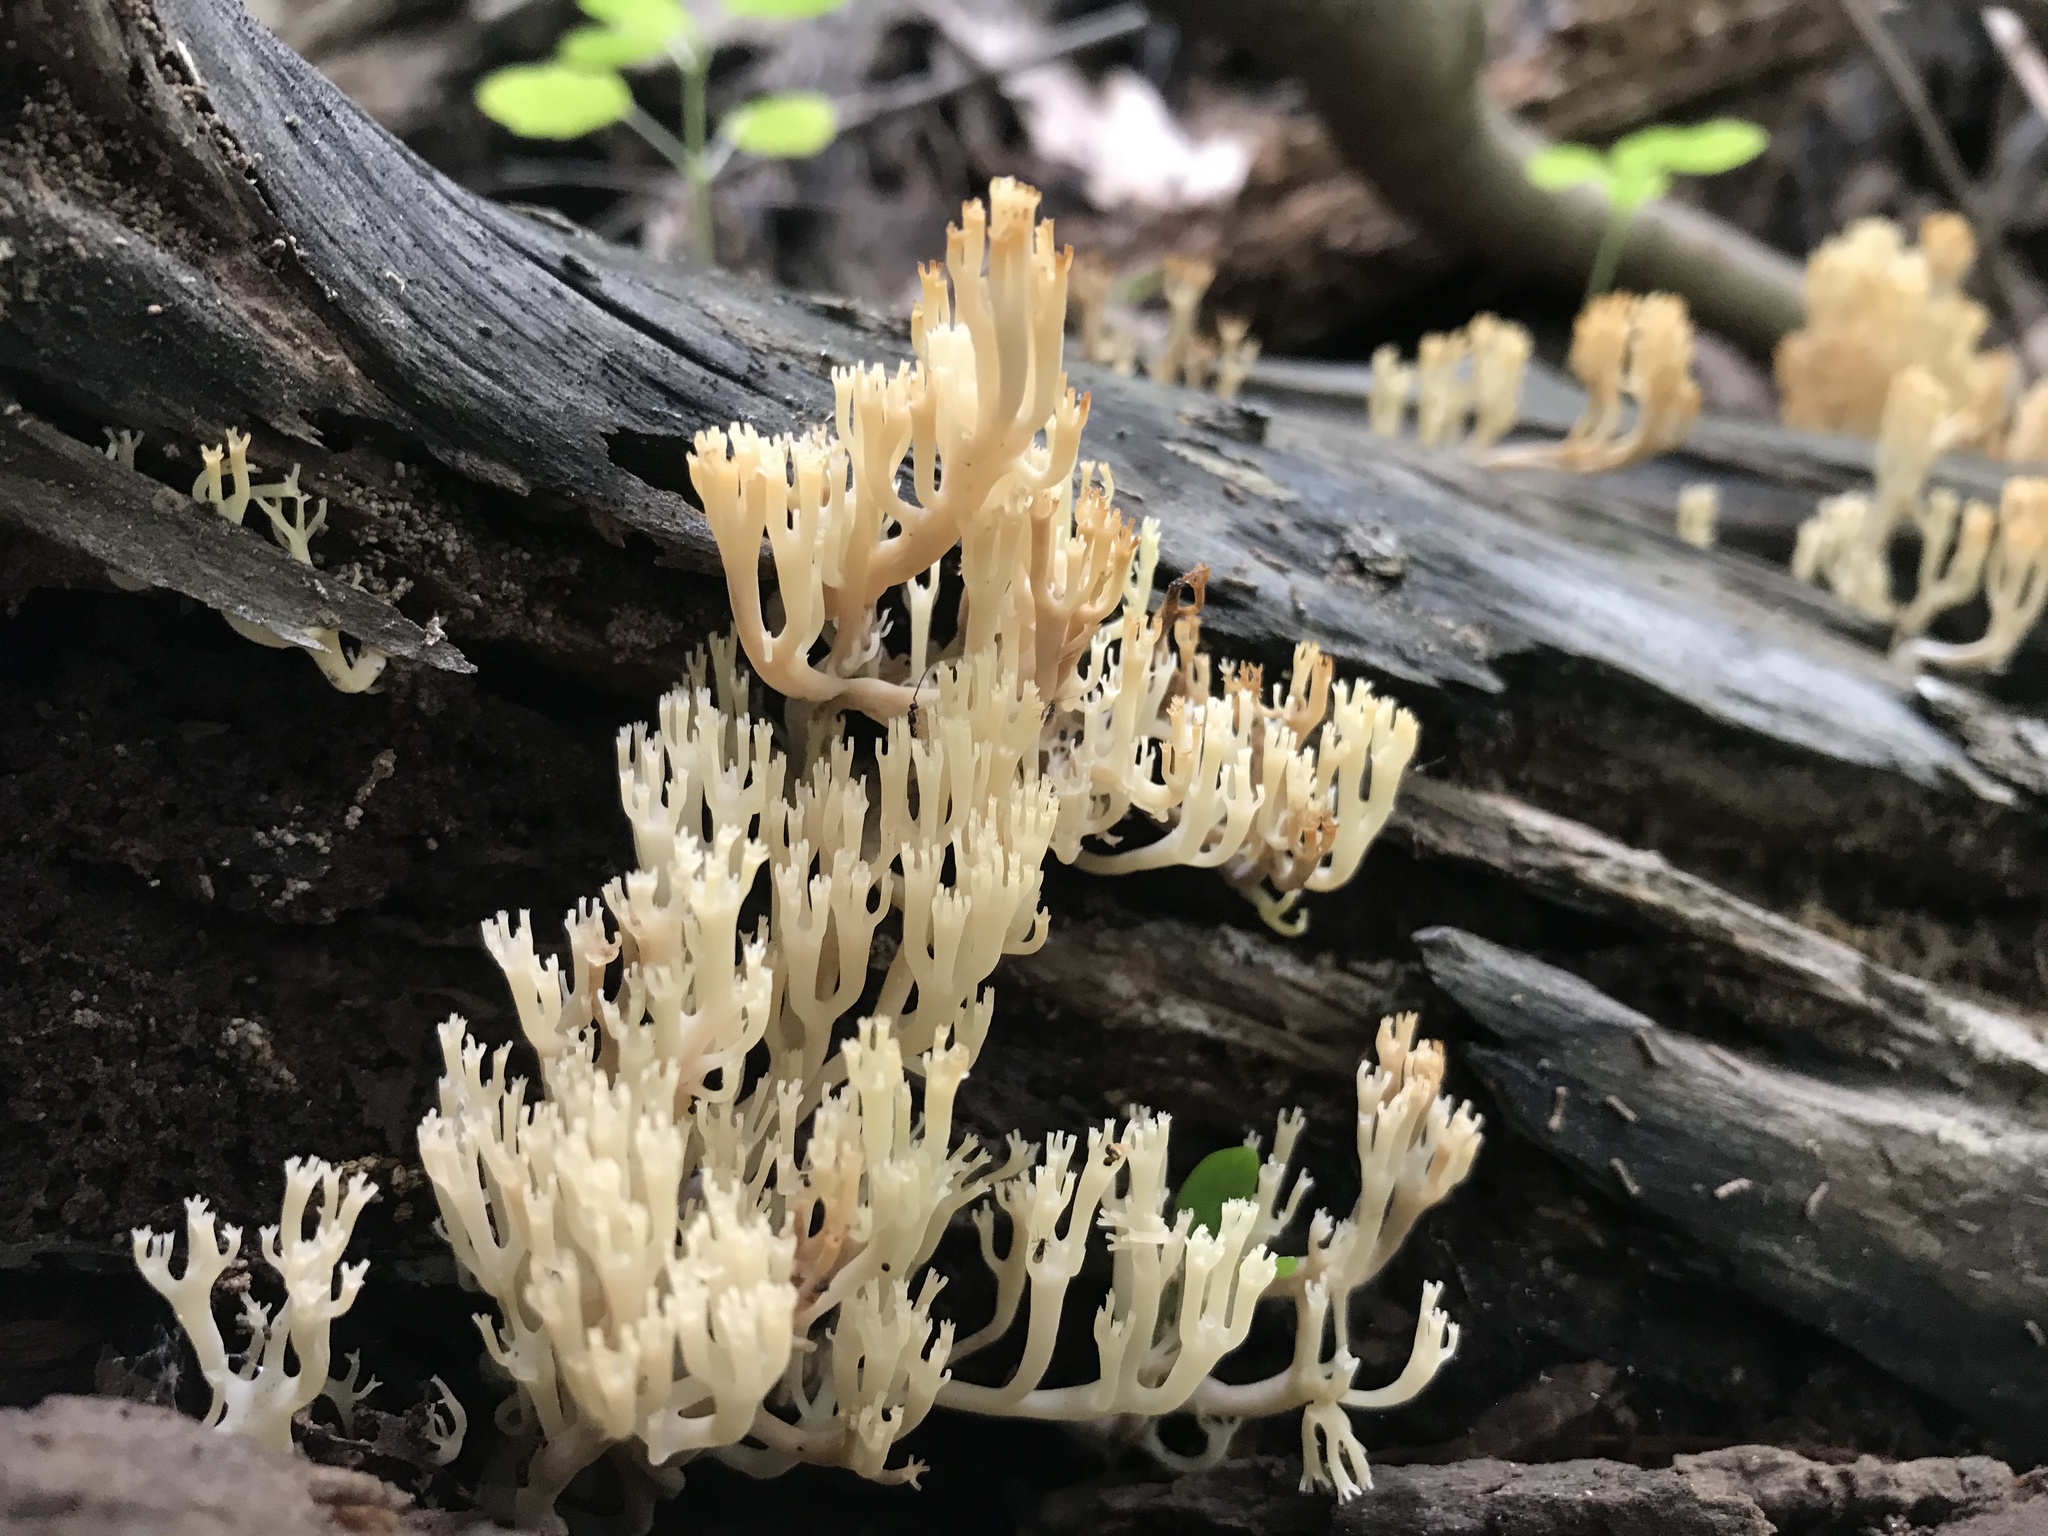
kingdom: Fungi
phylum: Basidiomycota
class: Agaricomycetes
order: Russulales
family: Auriscalpiaceae
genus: Artomyces
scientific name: Artomyces pyxidatus
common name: Crown-tipped coral fungus
